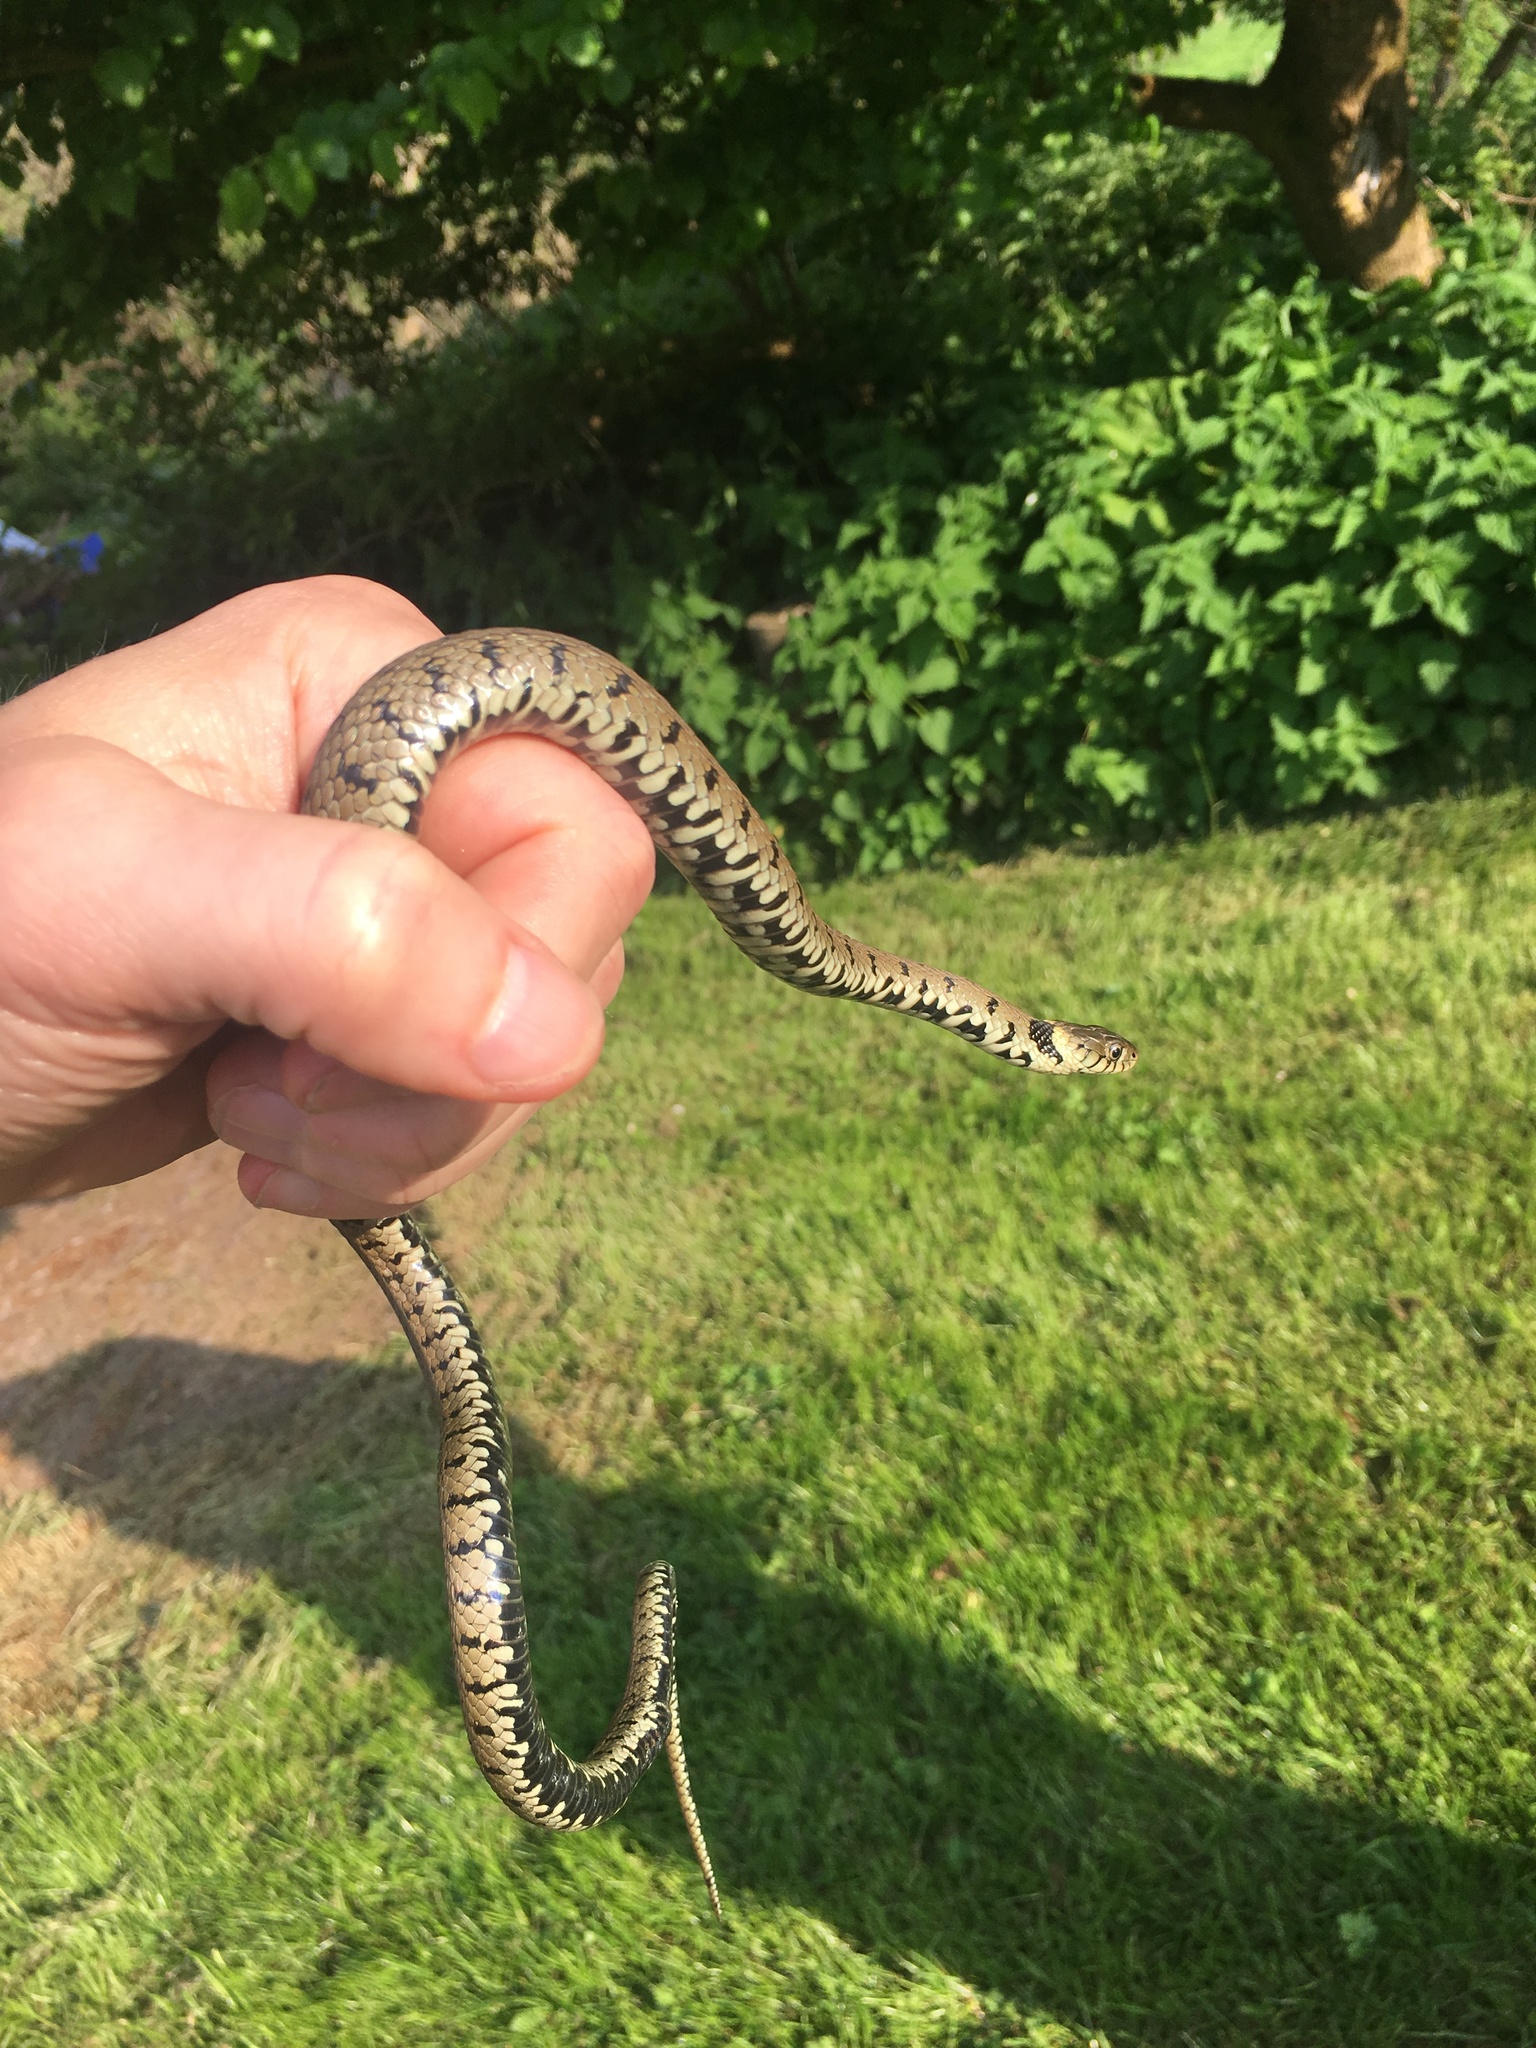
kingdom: Animalia
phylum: Chordata
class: Squamata
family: Colubridae
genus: Natrix
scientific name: Natrix helvetica
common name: Banded grass snake
